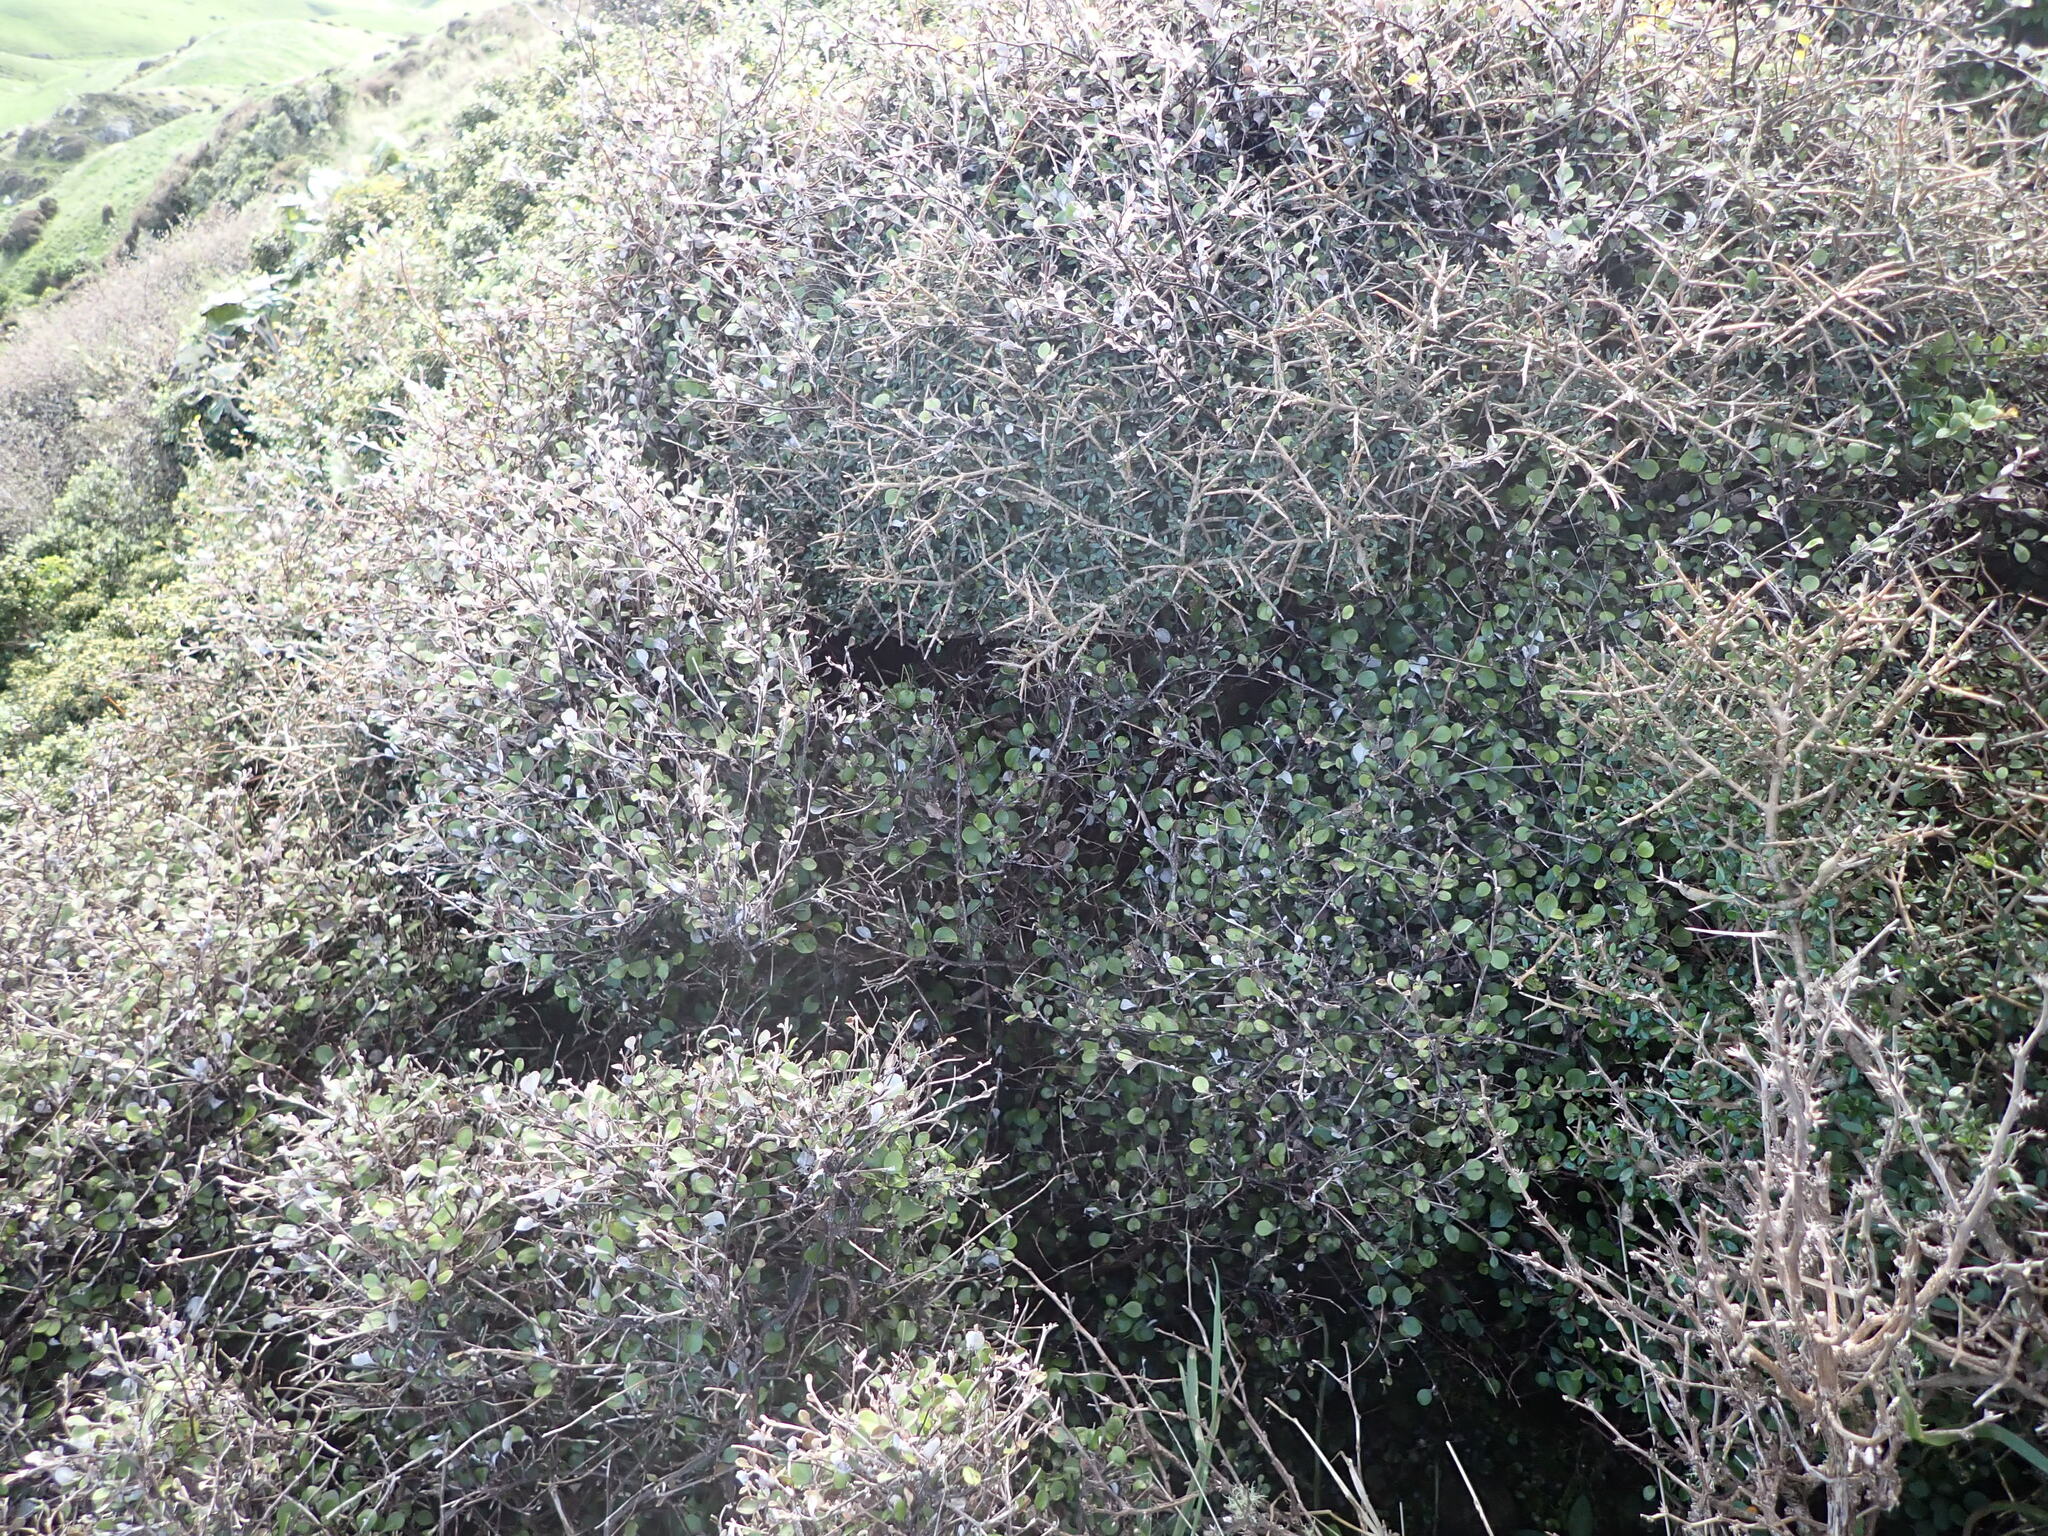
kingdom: Plantae
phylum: Tracheophyta
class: Magnoliopsida
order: Asterales
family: Asteraceae
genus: Ozothamnus
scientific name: Ozothamnus glomeratus
